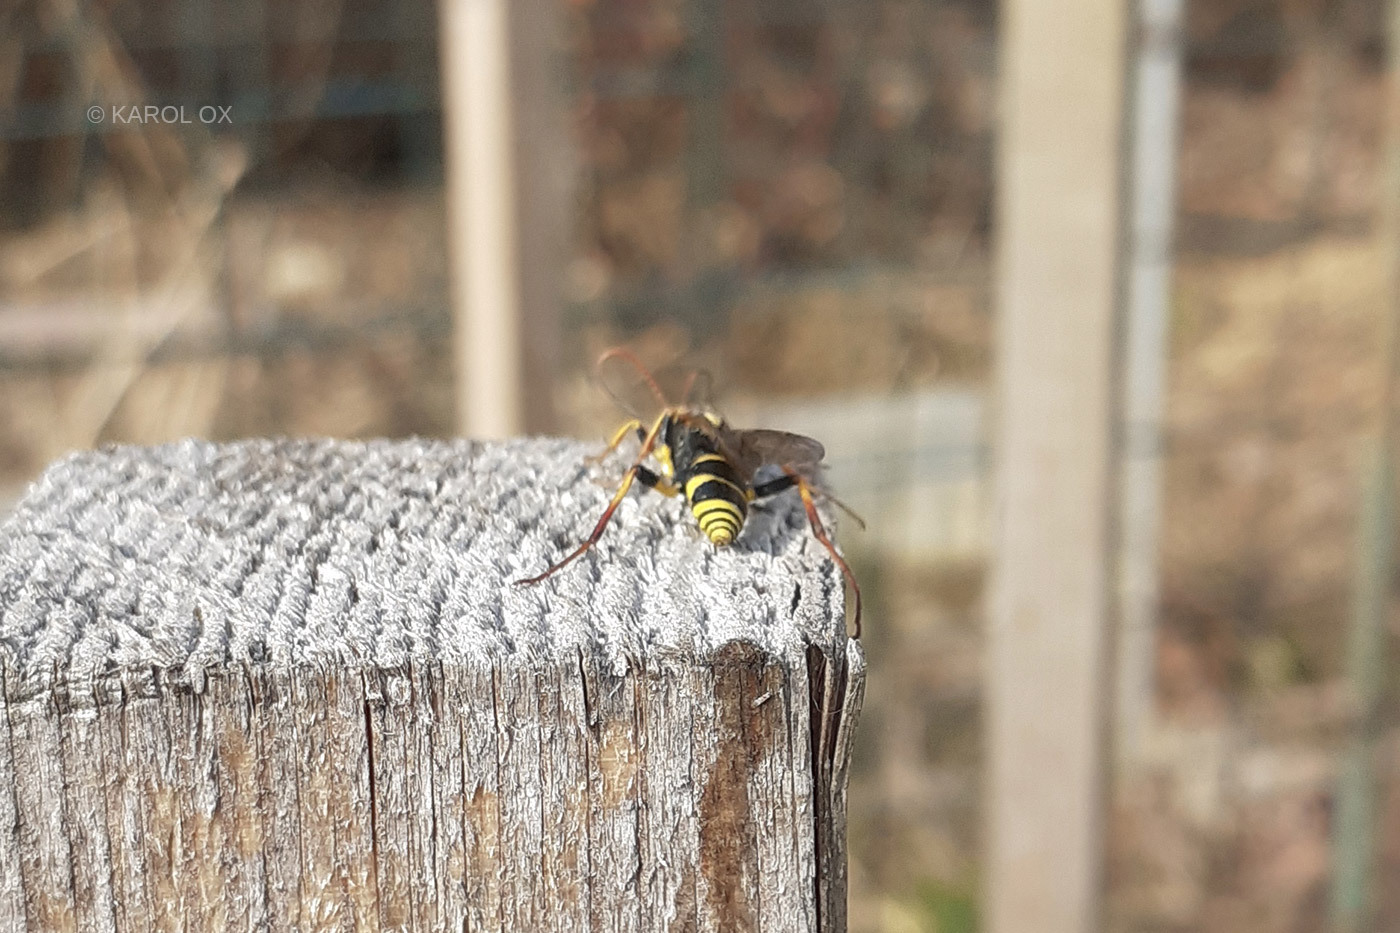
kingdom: Animalia
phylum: Arthropoda
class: Insecta
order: Hymenoptera
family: Ichneumonidae
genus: Amblyteles
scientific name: Amblyteles armatorius
